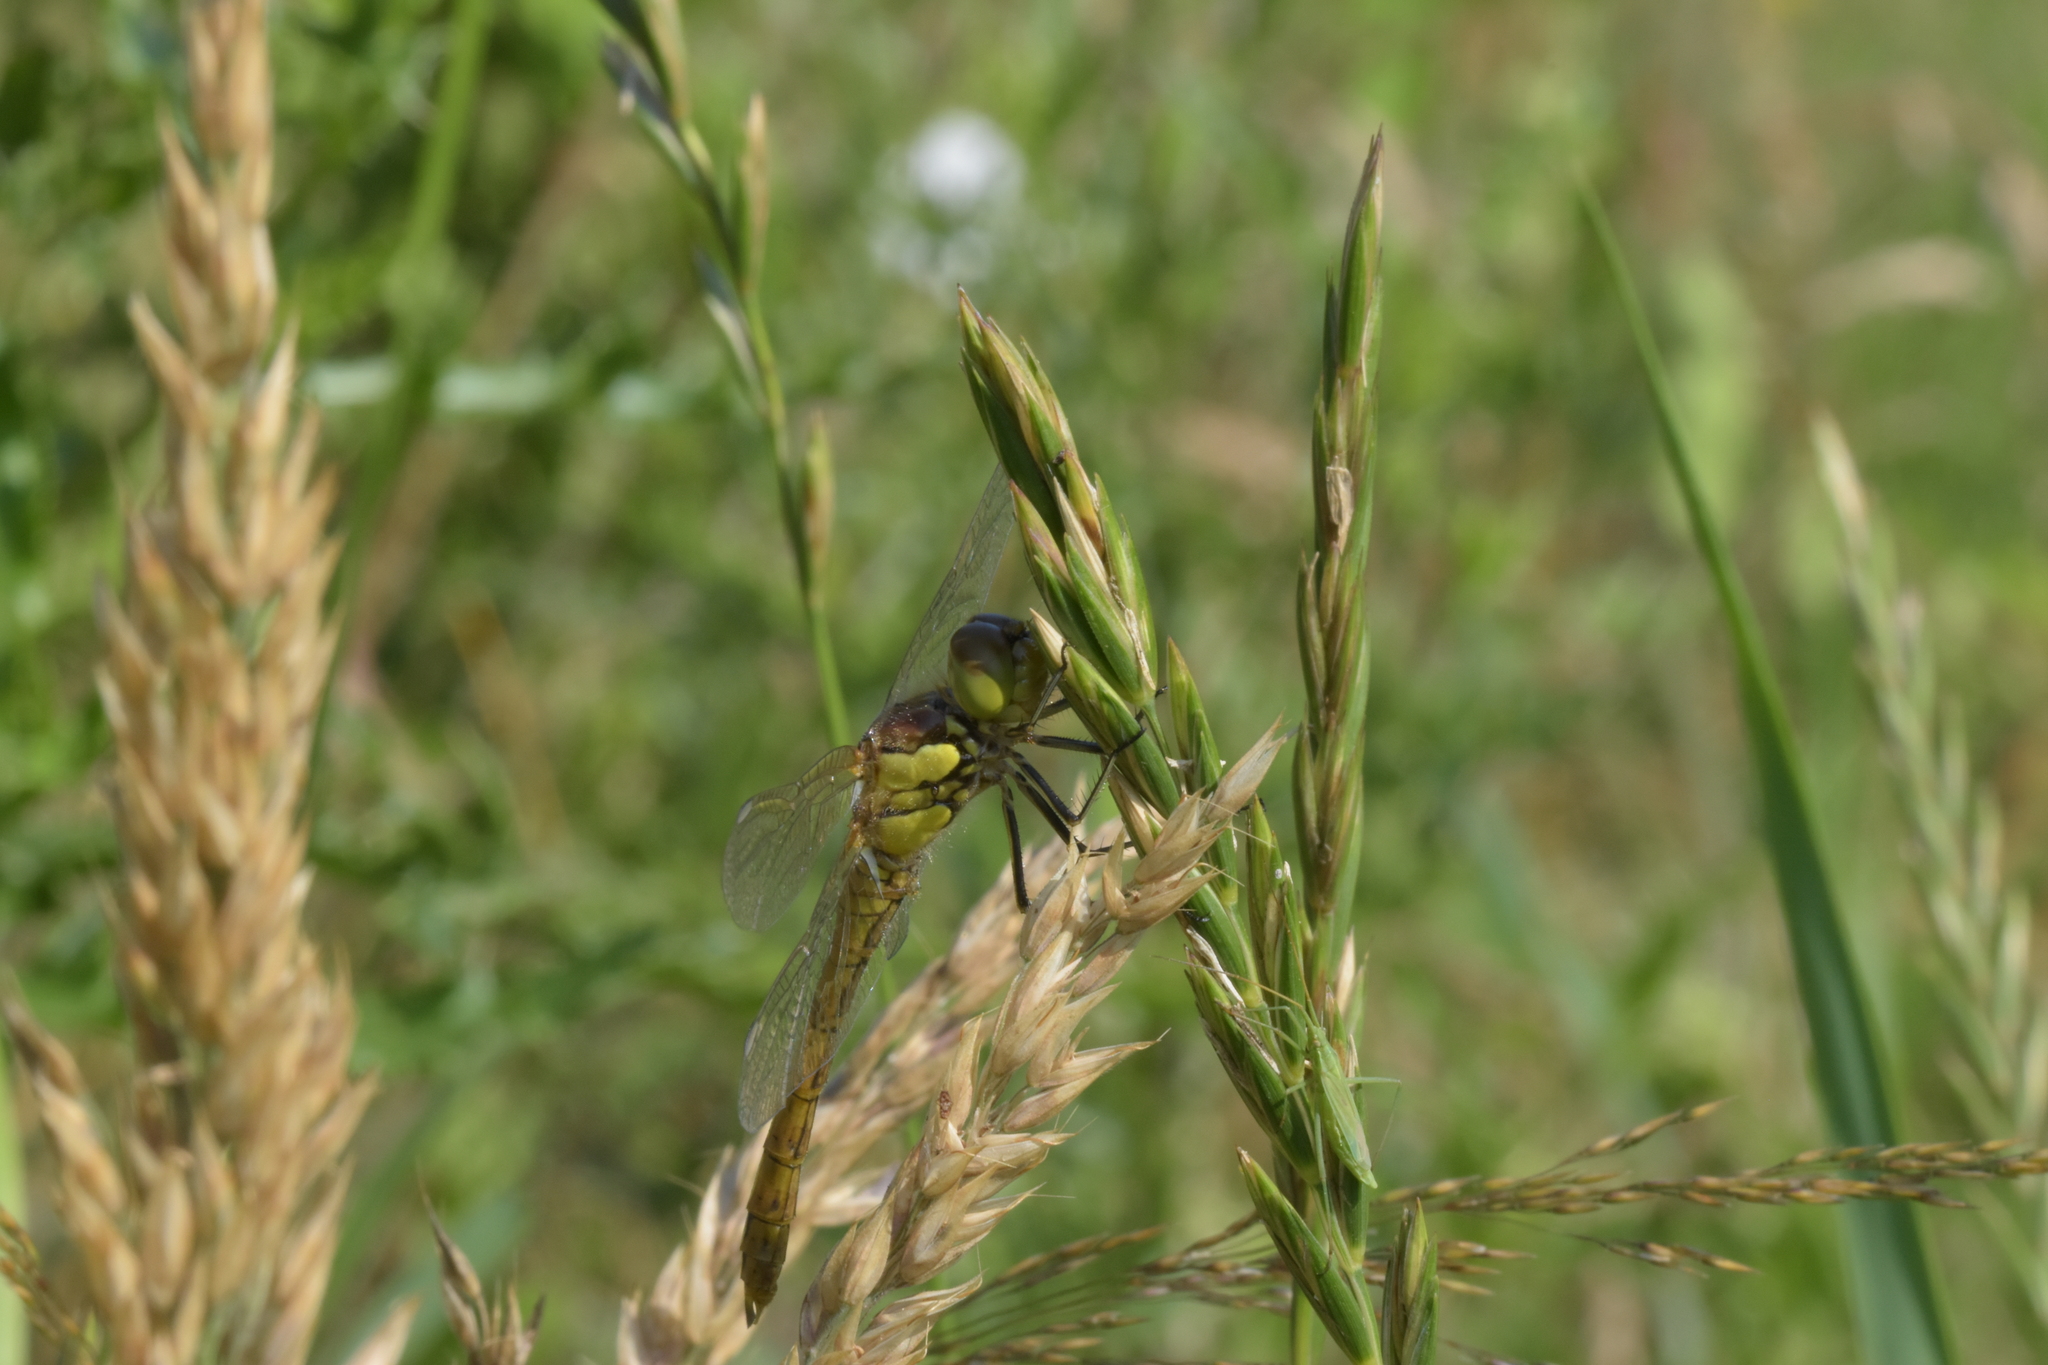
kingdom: Animalia
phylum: Arthropoda
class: Insecta
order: Odonata
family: Libellulidae
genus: Sympetrum
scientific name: Sympetrum striolatum
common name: Common darter
